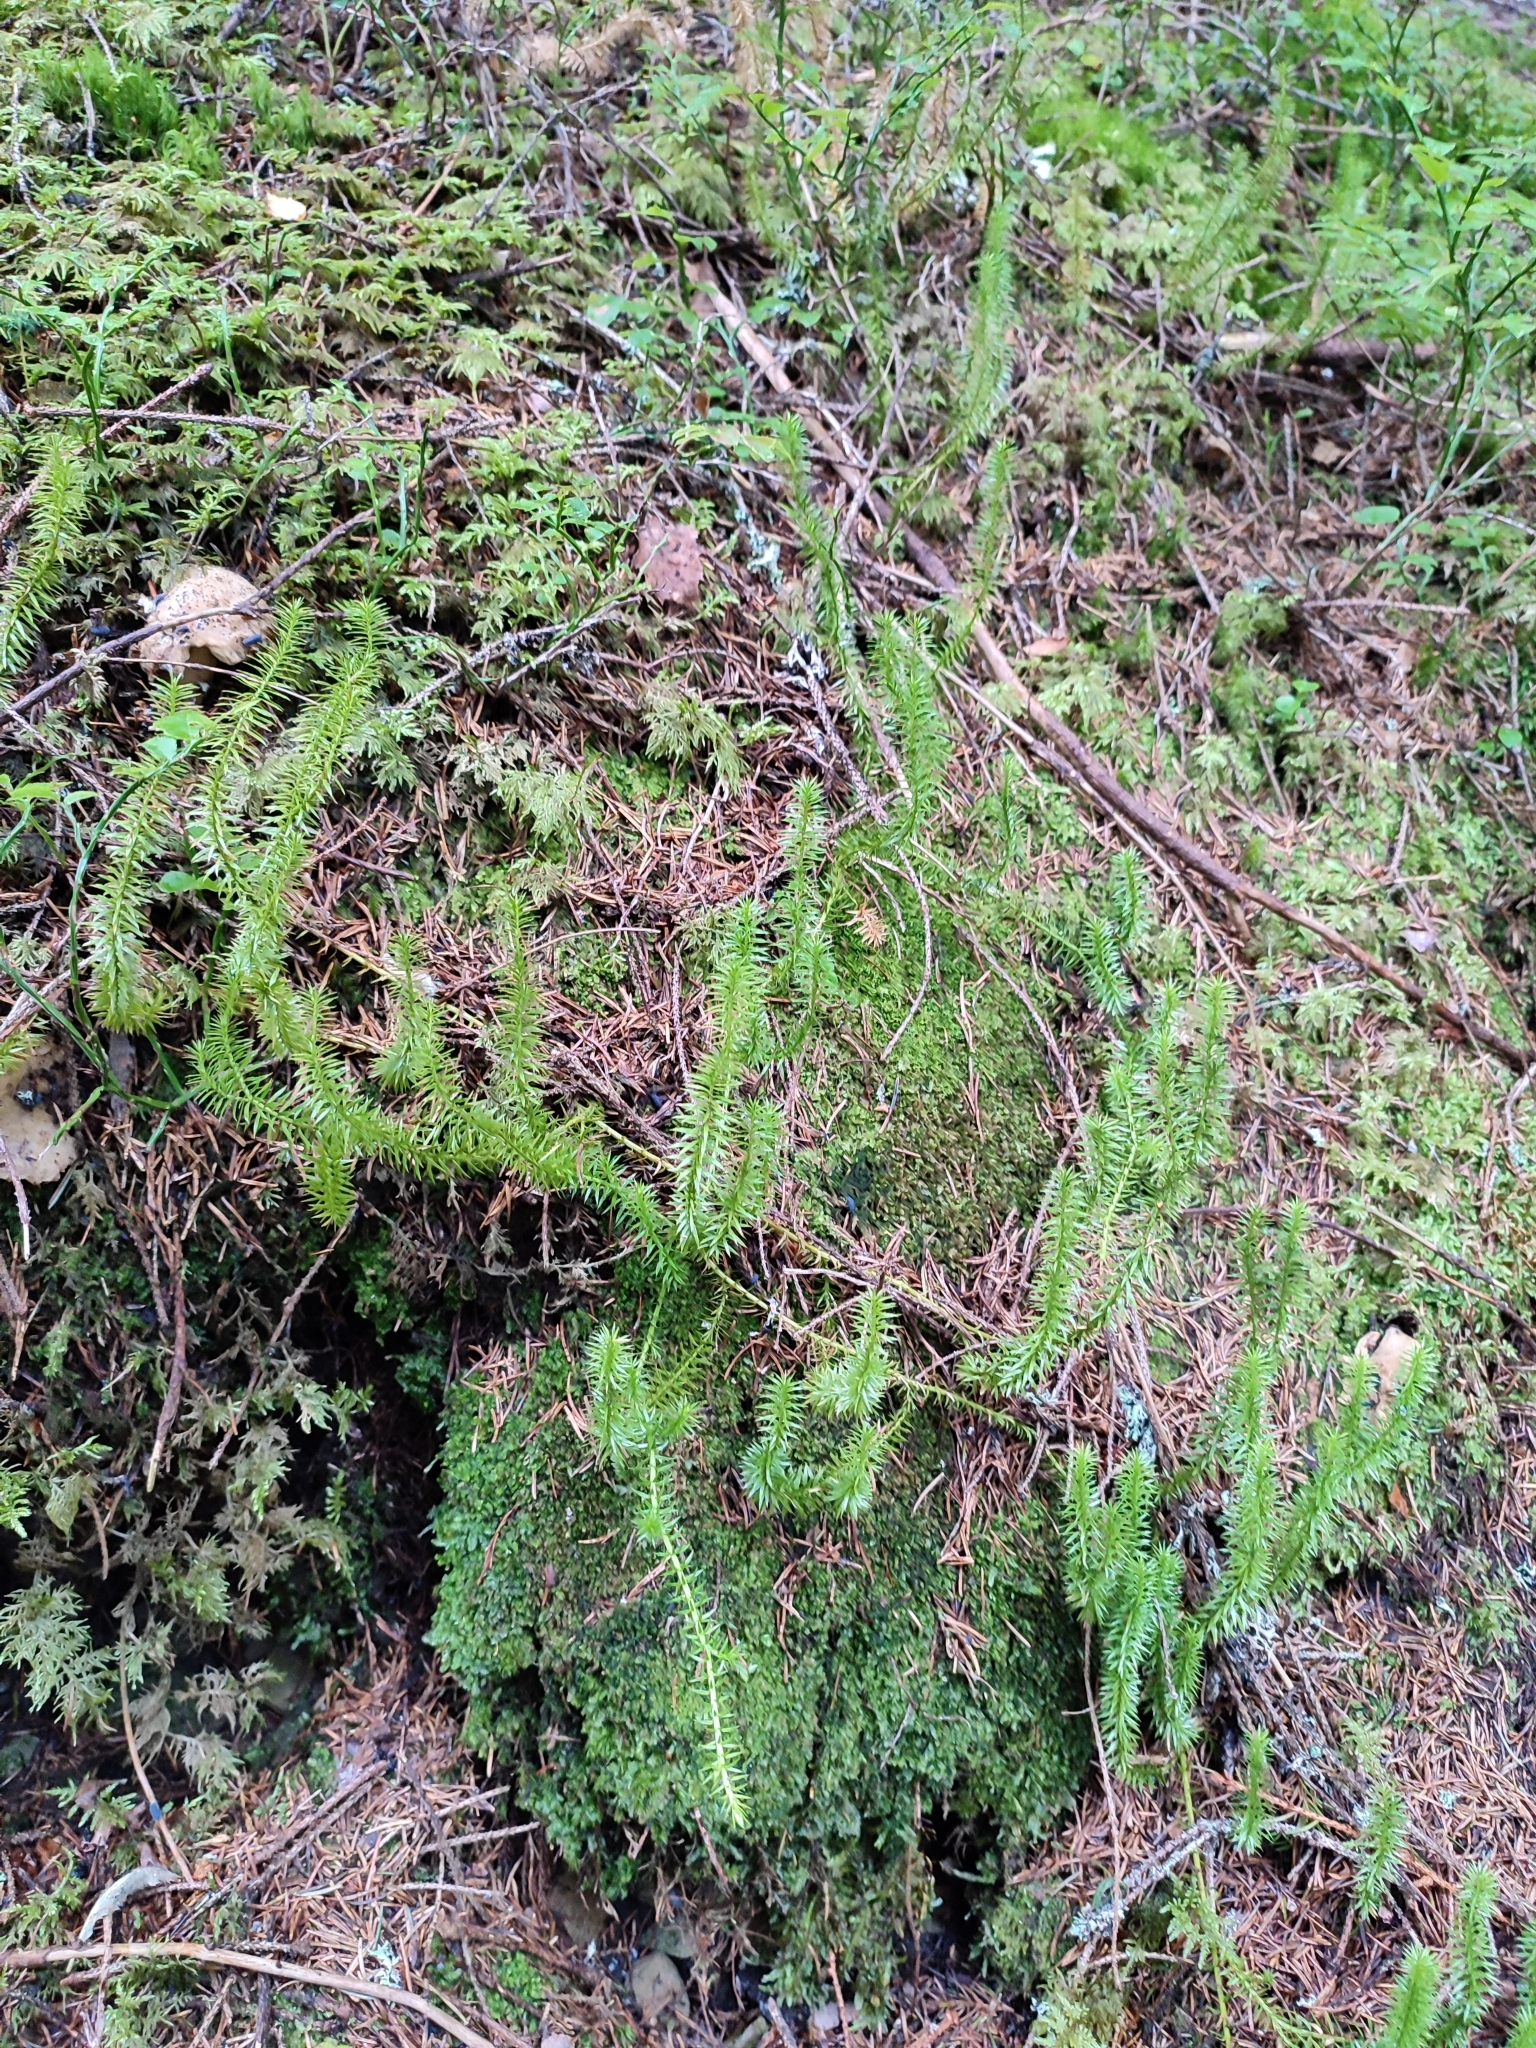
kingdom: Plantae
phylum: Tracheophyta
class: Lycopodiopsida
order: Lycopodiales
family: Lycopodiaceae
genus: Spinulum
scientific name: Spinulum annotinum
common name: Interrupted club-moss
